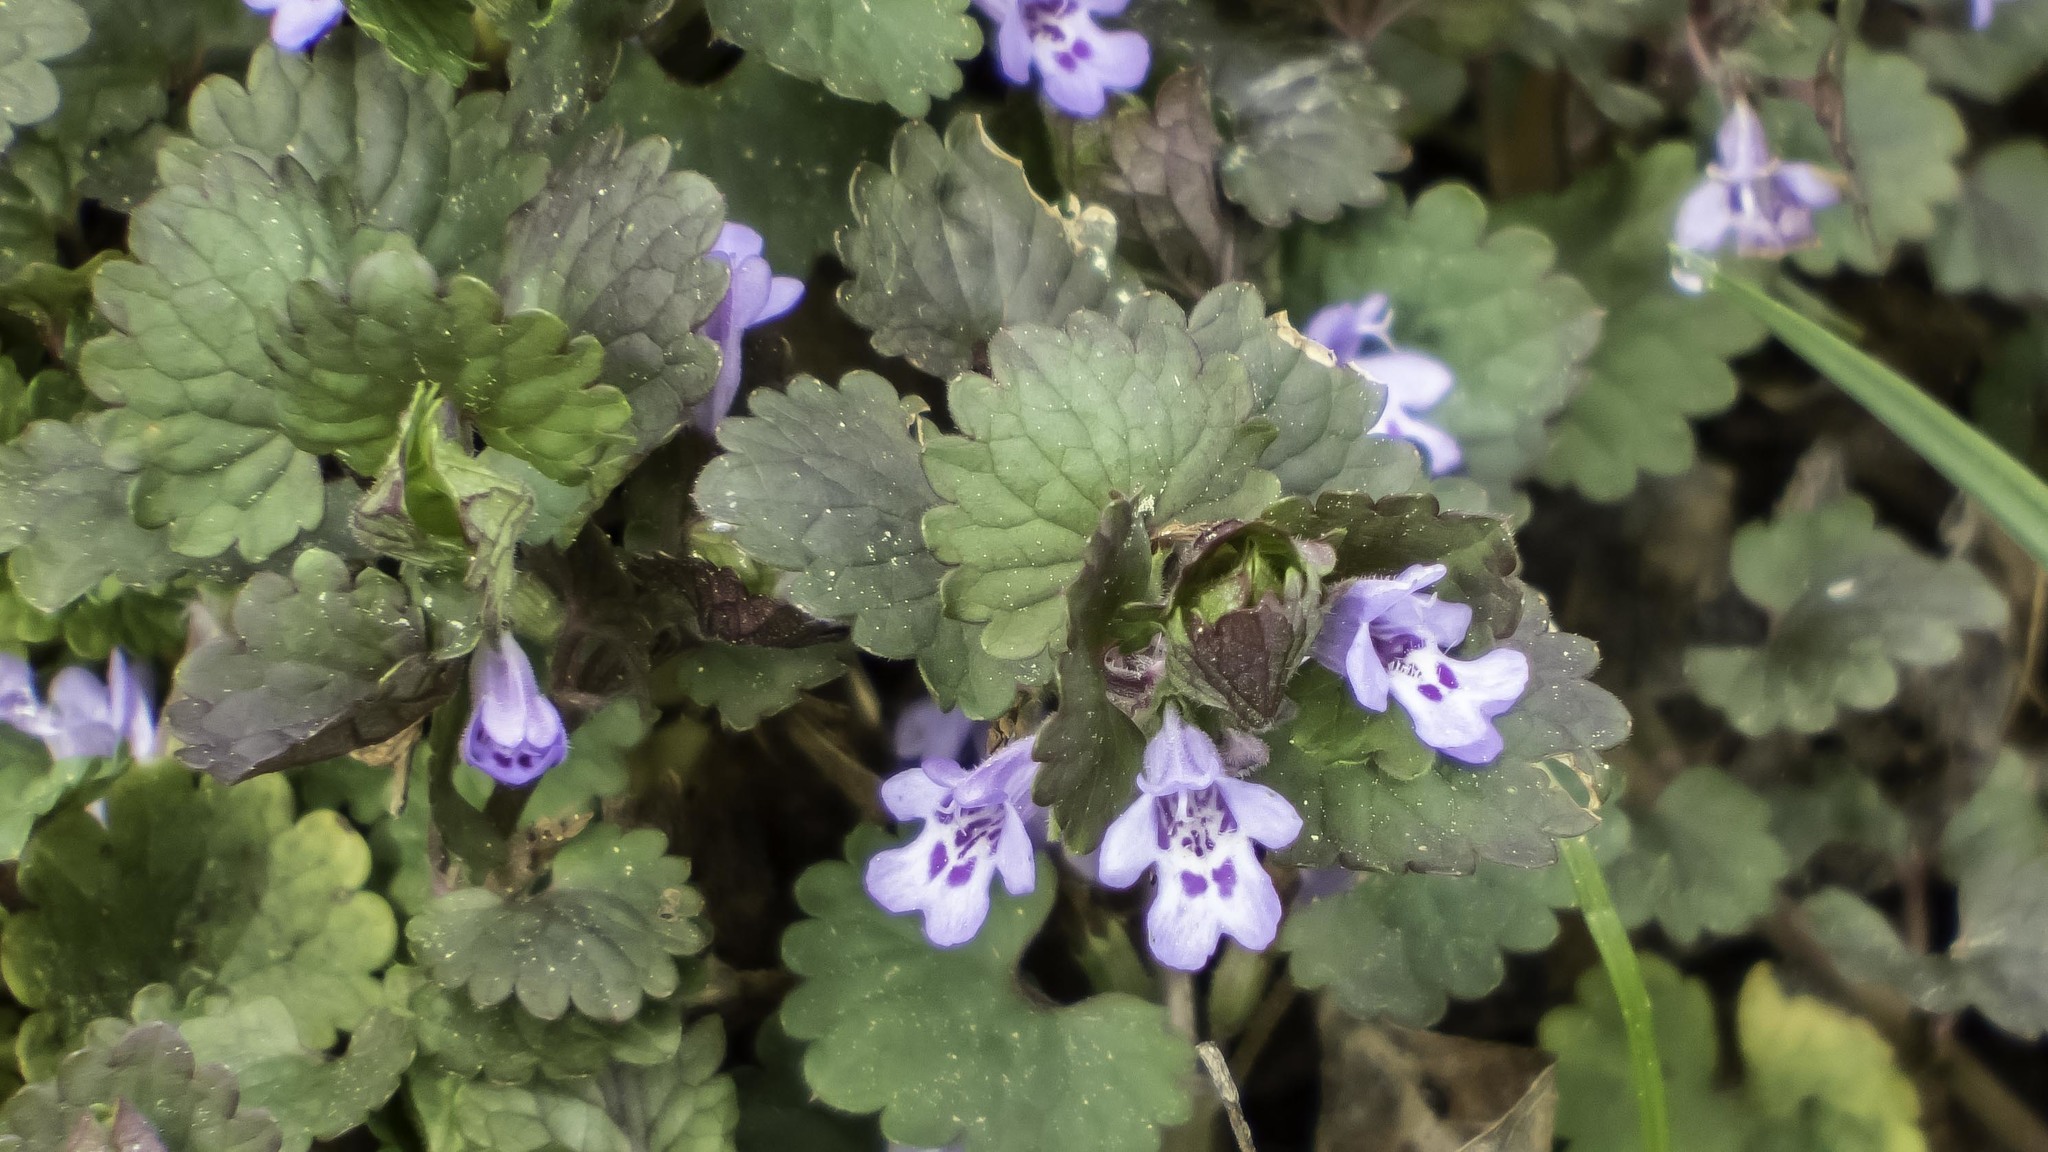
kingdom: Plantae
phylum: Tracheophyta
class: Magnoliopsida
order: Lamiales
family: Lamiaceae
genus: Glechoma
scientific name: Glechoma hederacea
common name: Ground ivy
